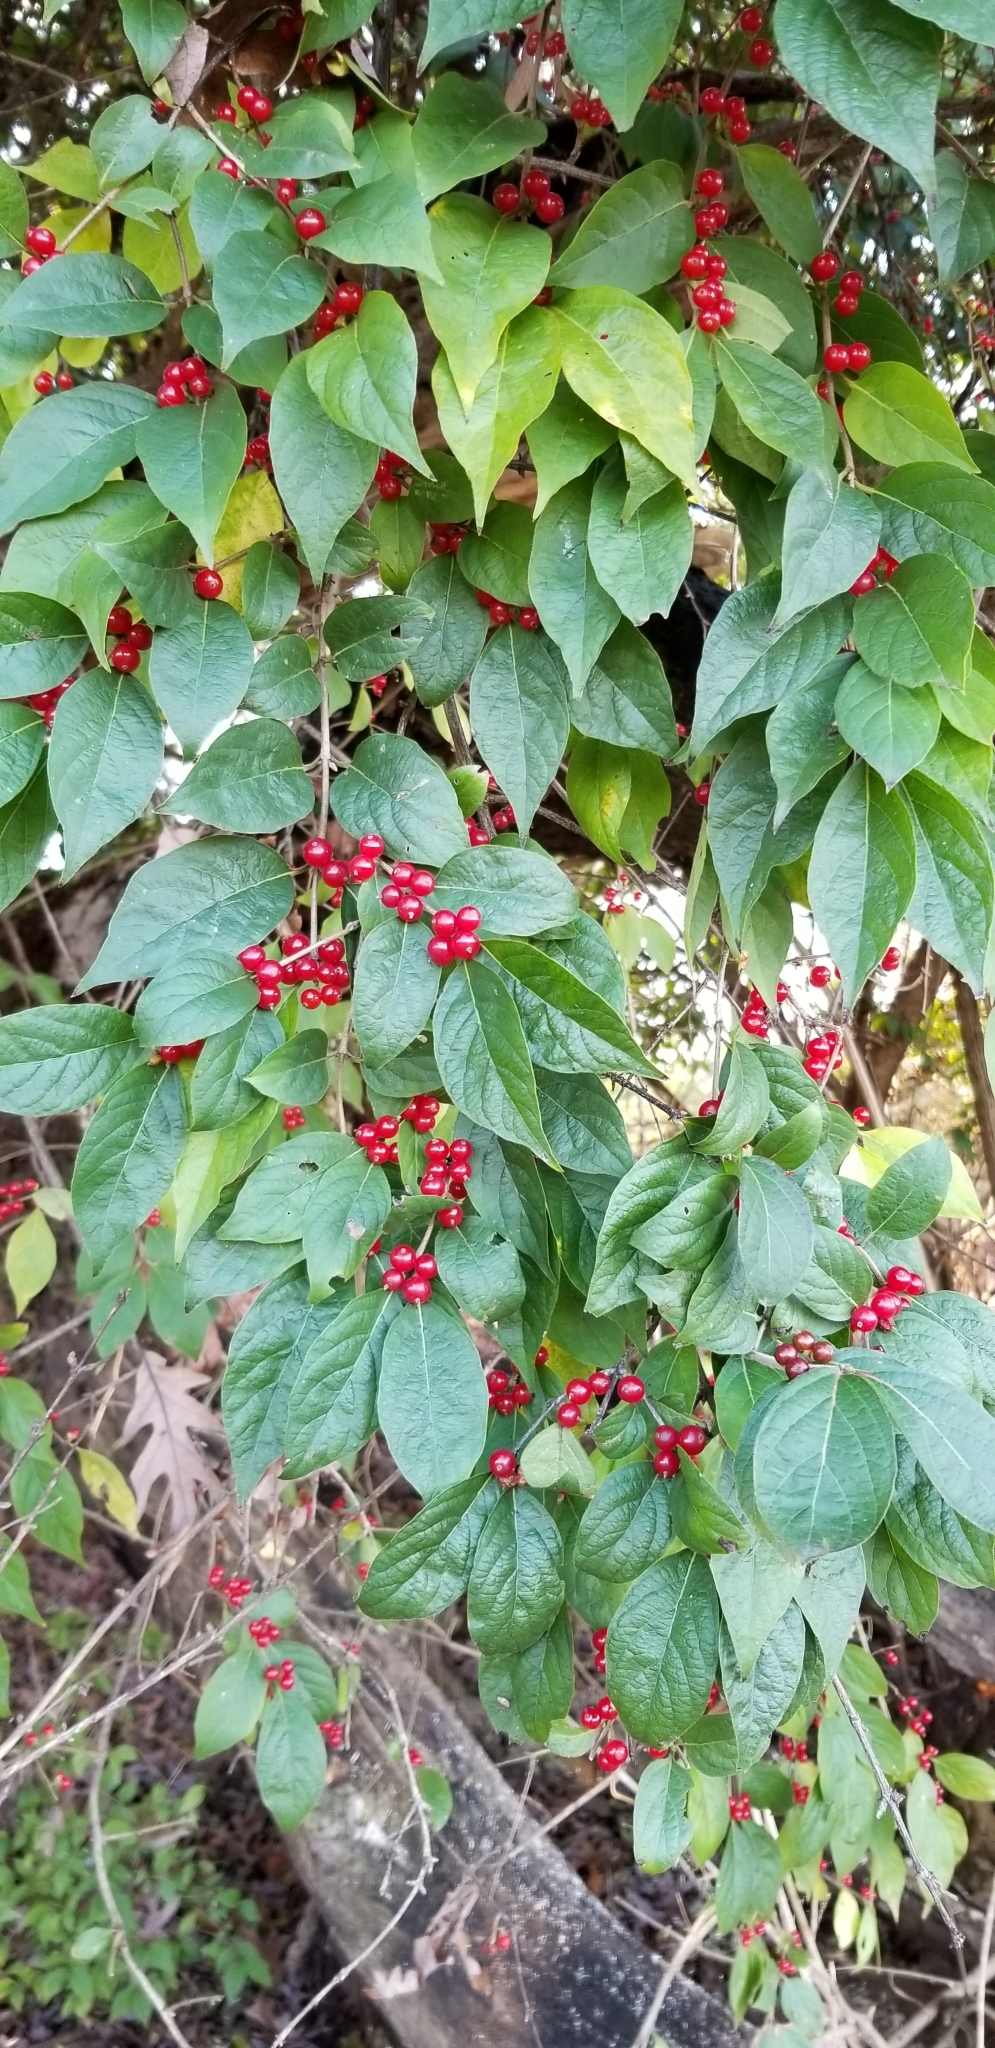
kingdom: Plantae
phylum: Tracheophyta
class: Magnoliopsida
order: Dipsacales
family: Caprifoliaceae
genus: Lonicera
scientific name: Lonicera maackii
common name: Amur honeysuckle
